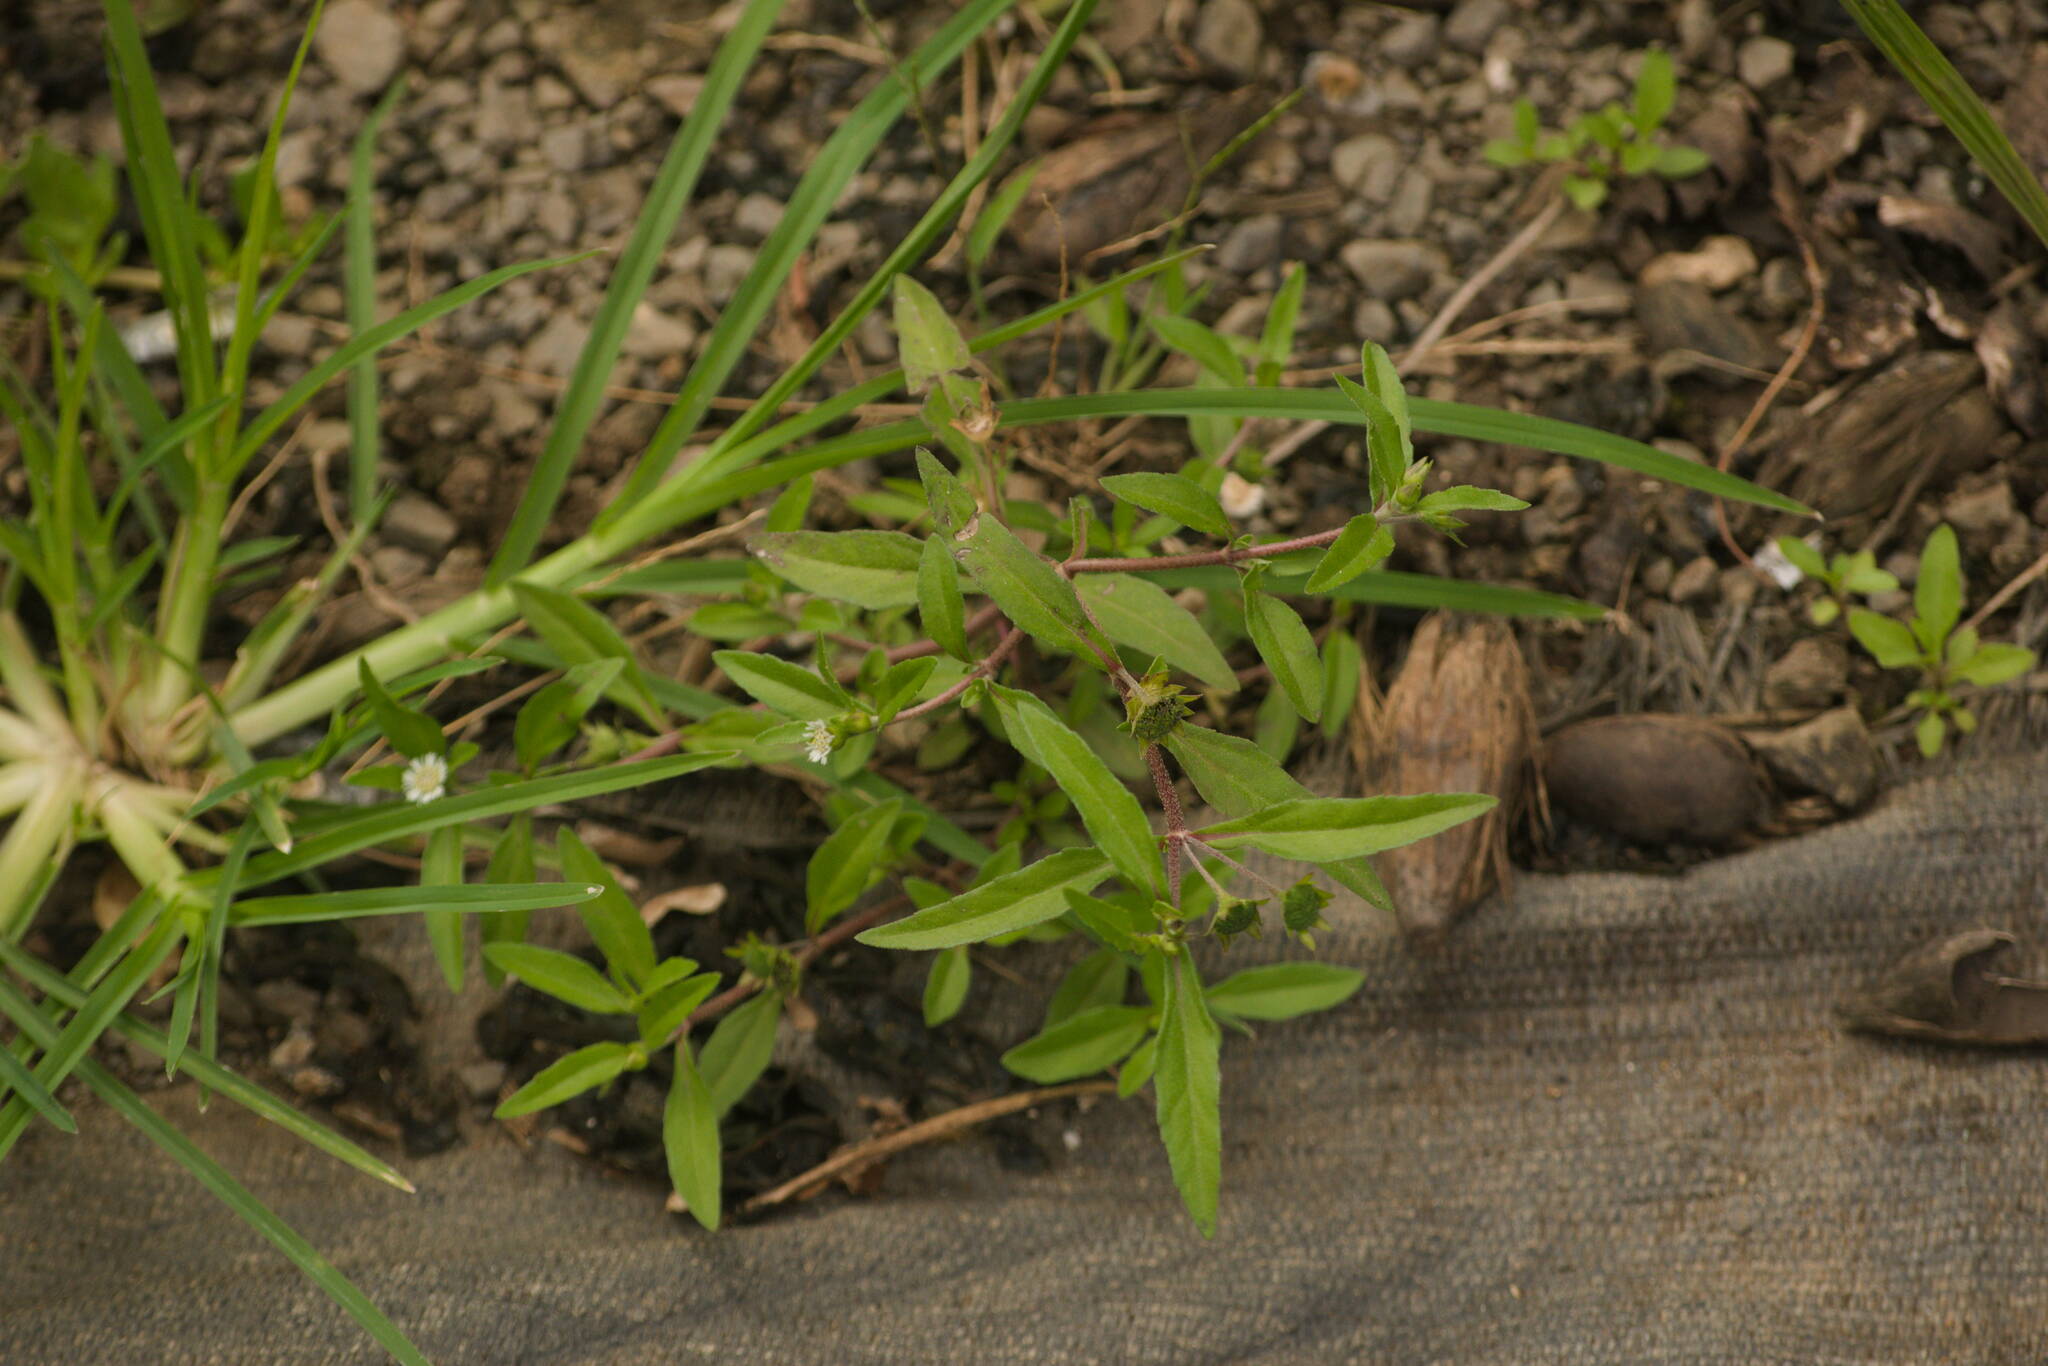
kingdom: Plantae
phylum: Tracheophyta
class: Magnoliopsida
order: Asterales
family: Asteraceae
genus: Eclipta
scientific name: Eclipta prostrata
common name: False daisy
